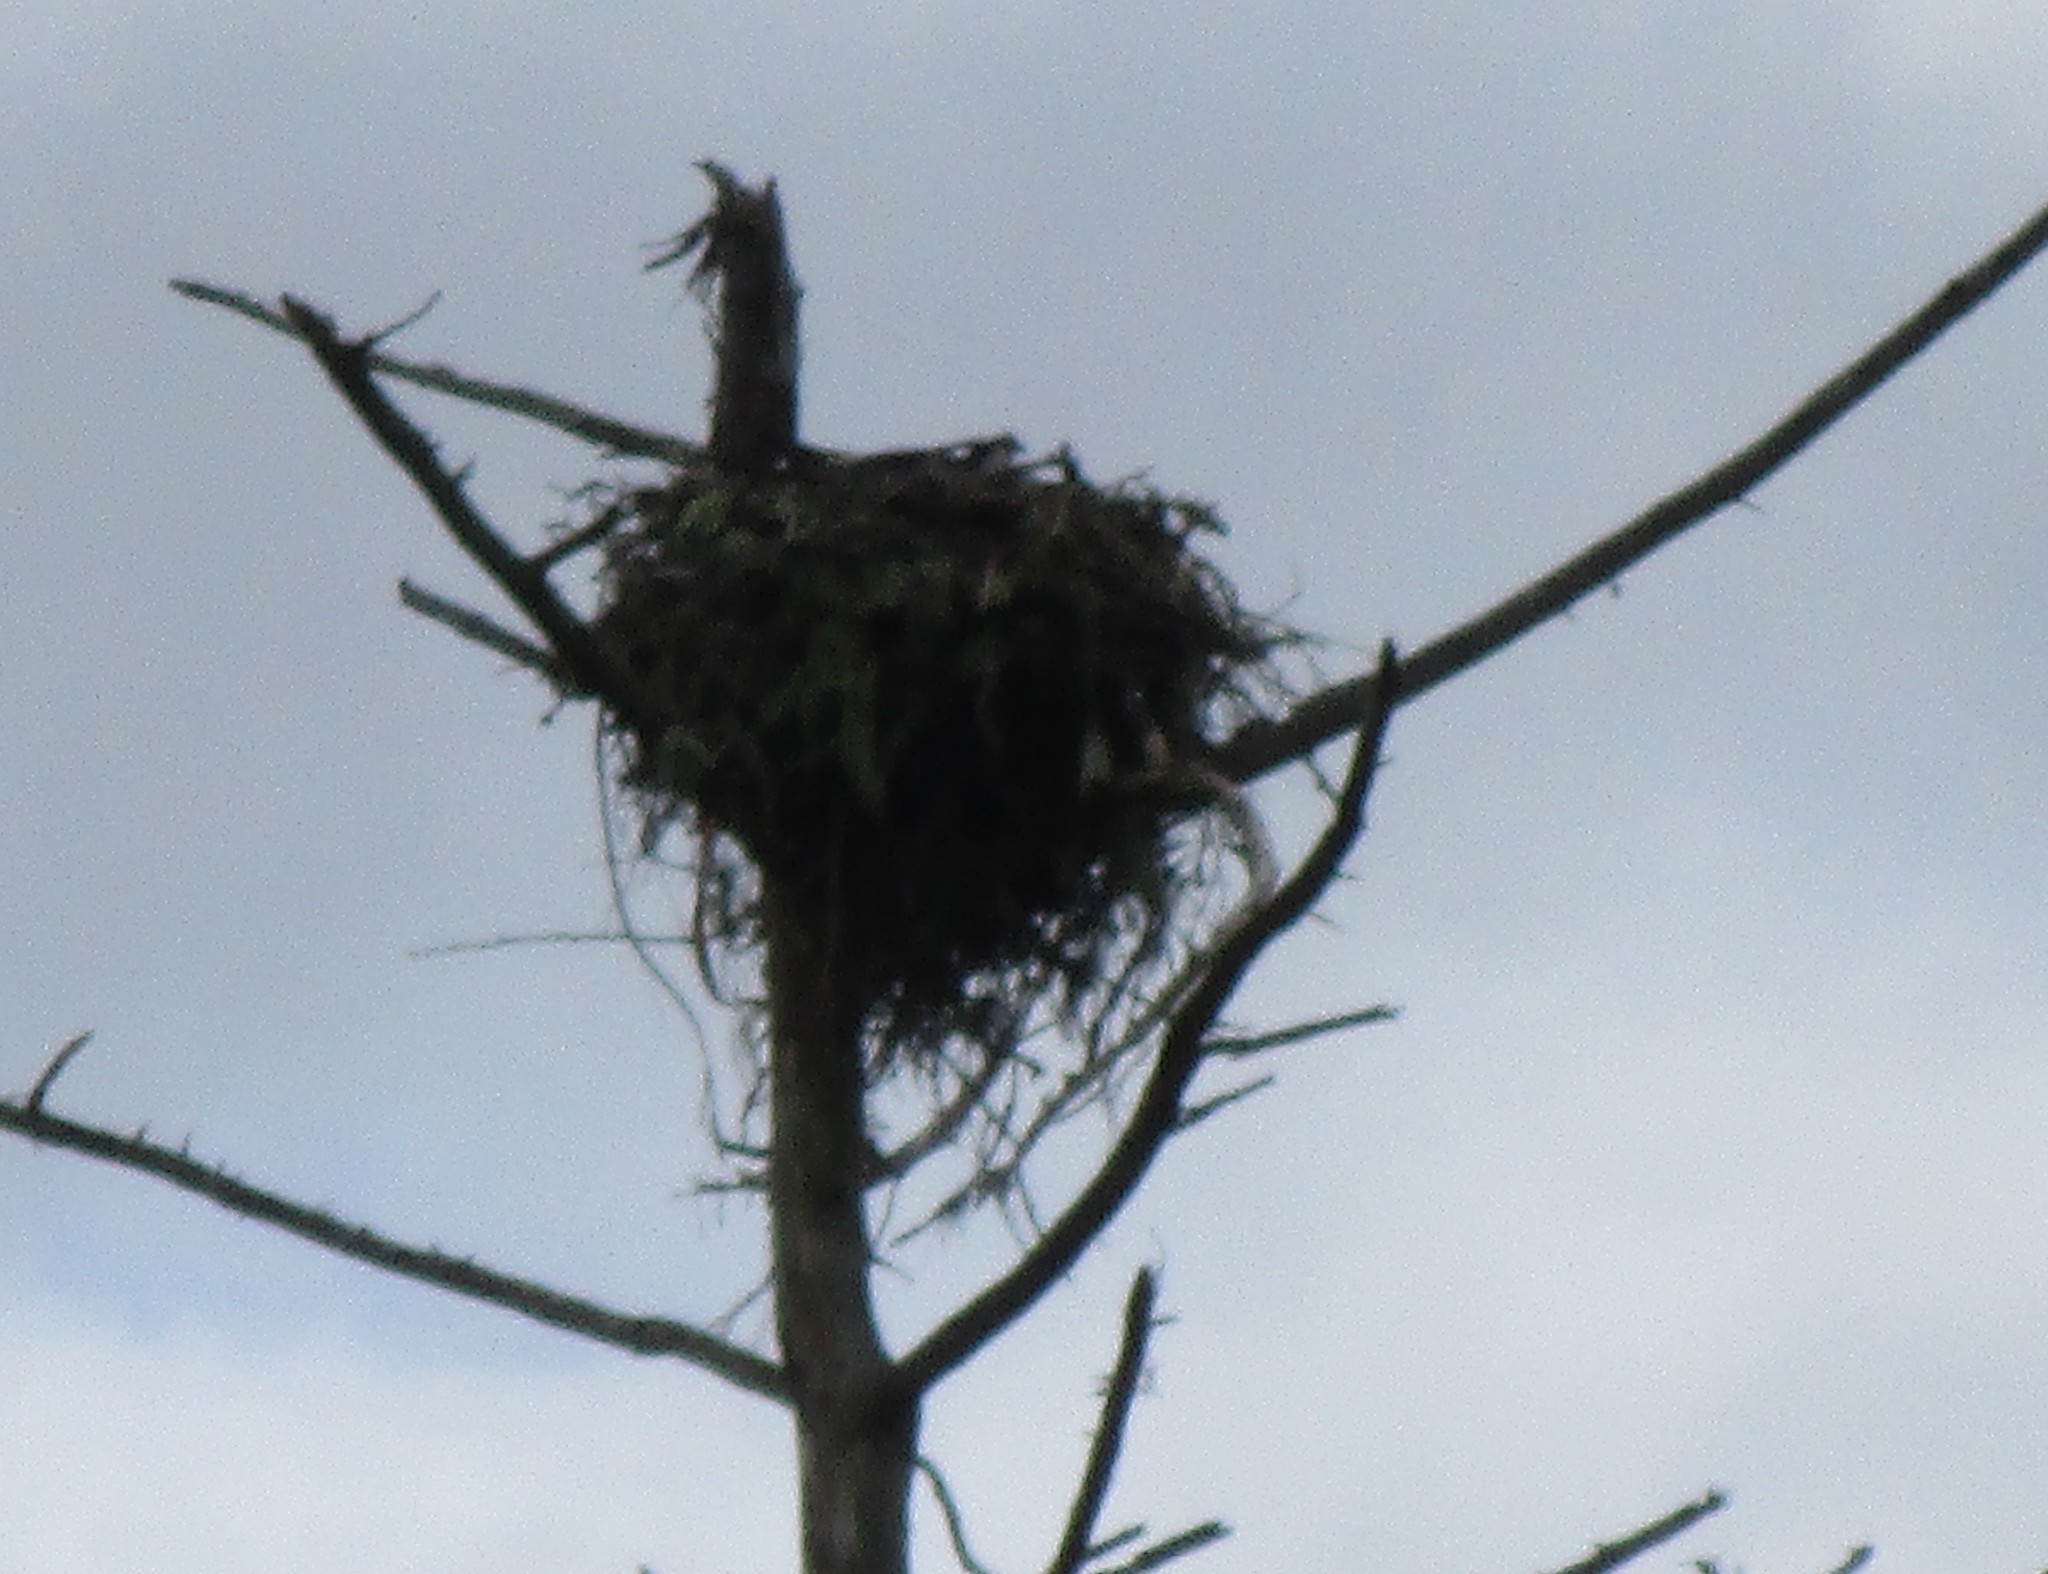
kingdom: Animalia
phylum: Chordata
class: Aves
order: Accipitriformes
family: Pandionidae
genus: Pandion
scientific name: Pandion haliaetus
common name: Osprey
